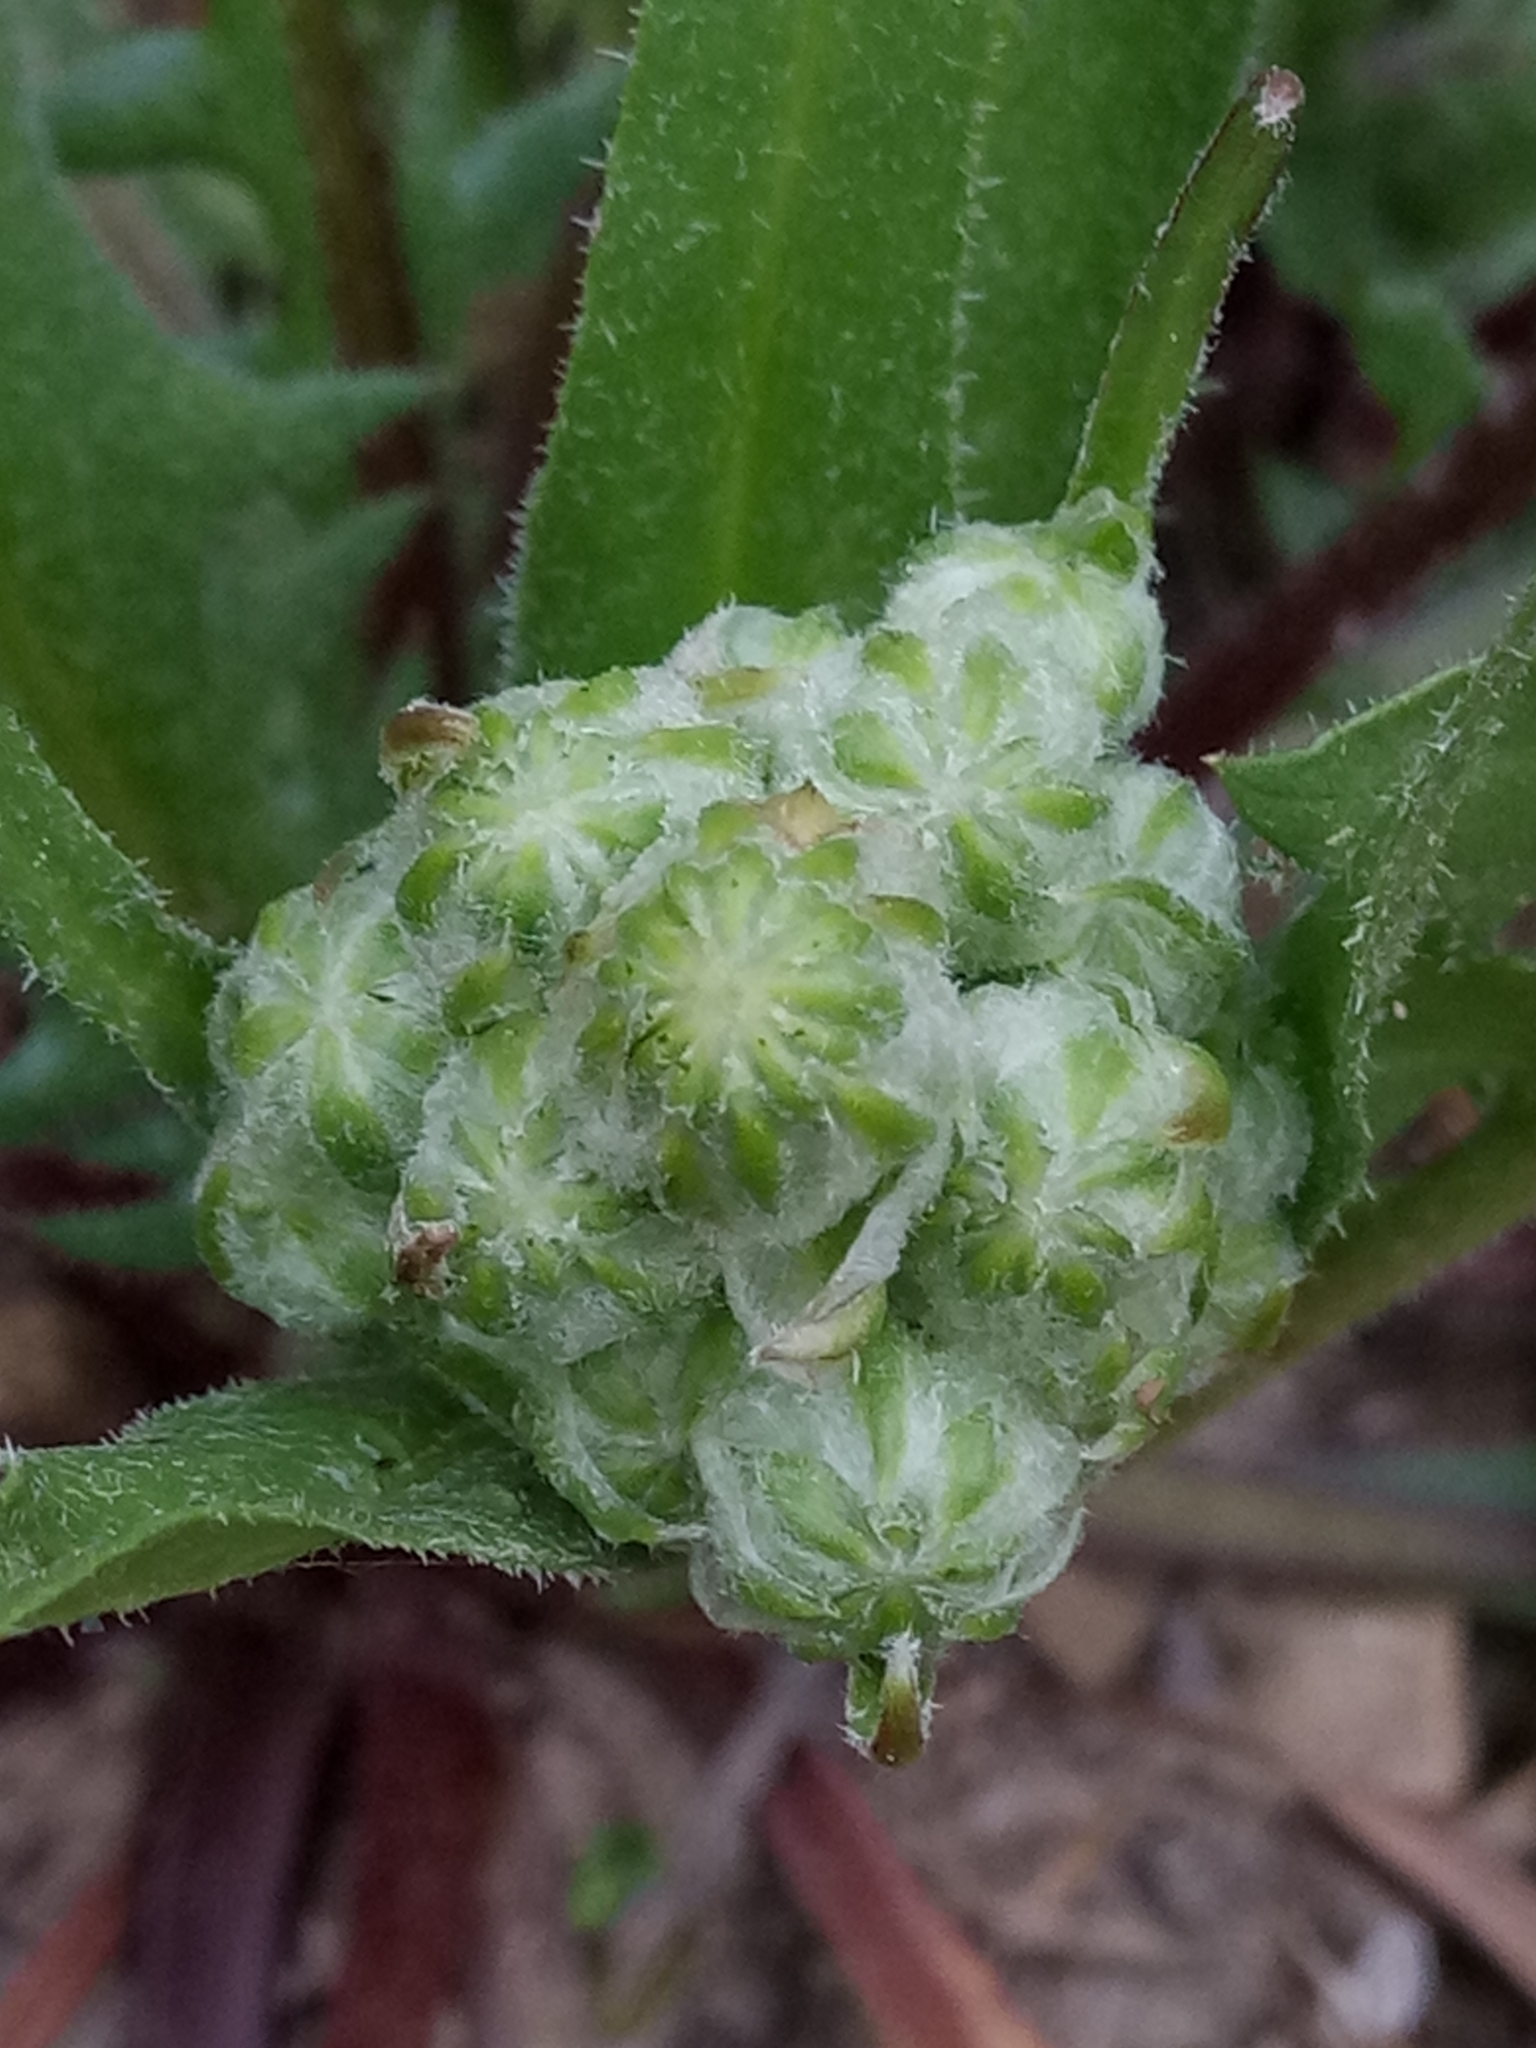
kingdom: Plantae
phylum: Tracheophyta
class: Magnoliopsida
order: Asterales
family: Asteraceae
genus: Crepis
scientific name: Crepis vesicaria
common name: Beaked hawksbeard
